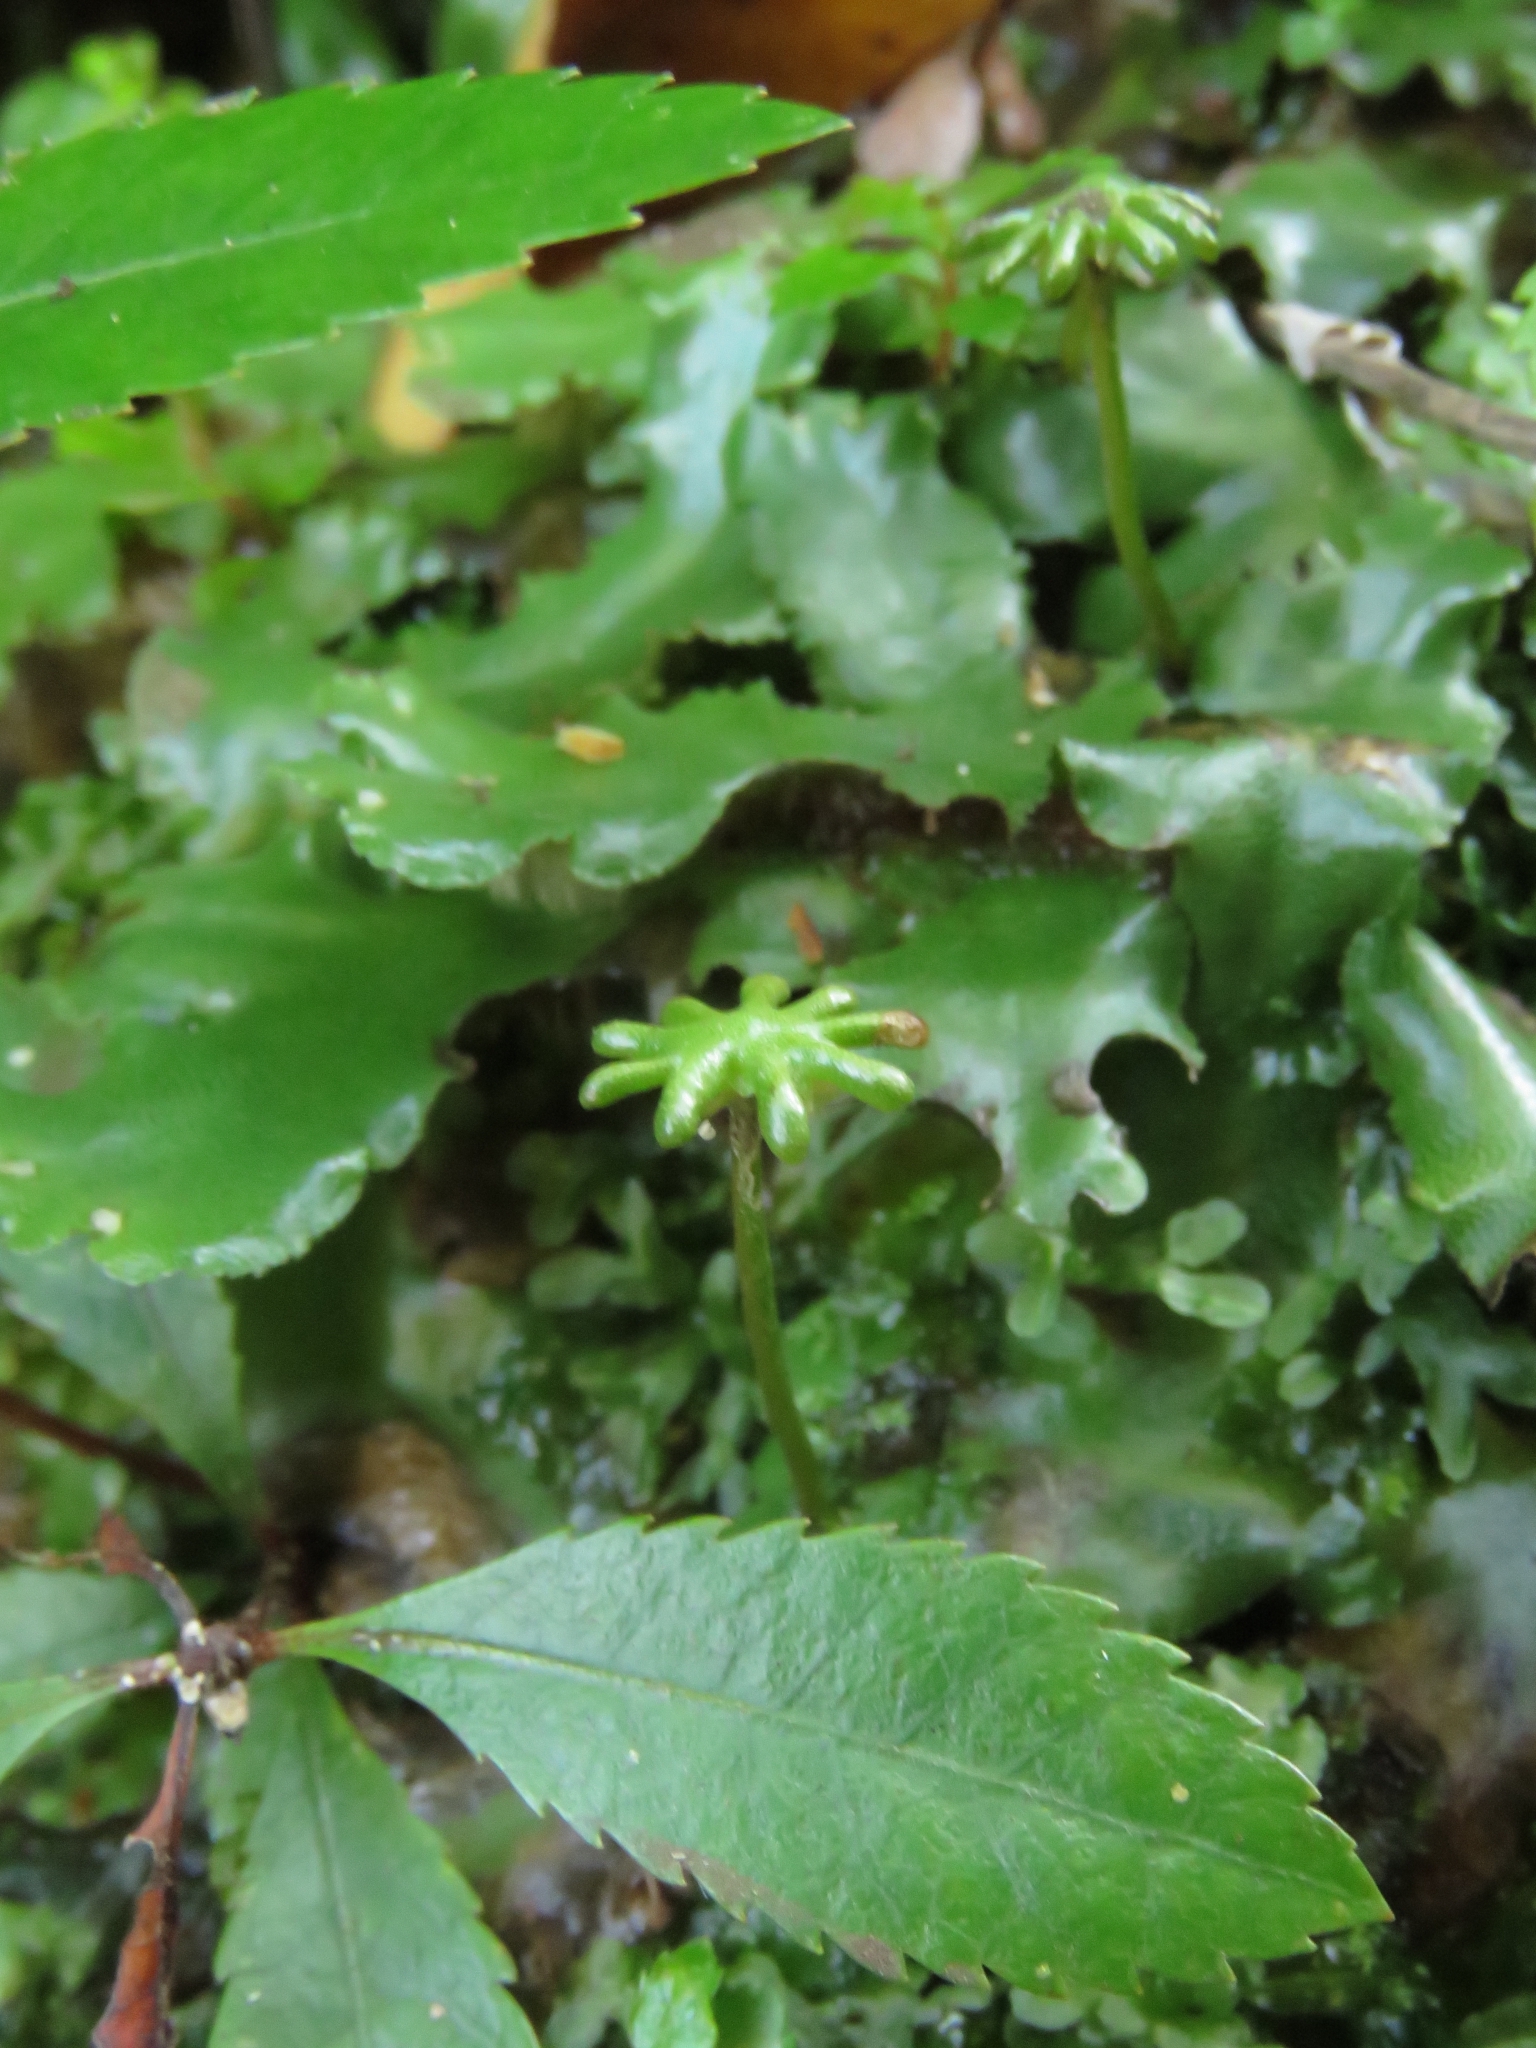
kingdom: Plantae
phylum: Marchantiophyta
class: Marchantiopsida
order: Marchantiales
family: Marchantiaceae
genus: Marchantia
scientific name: Marchantia berteroana
